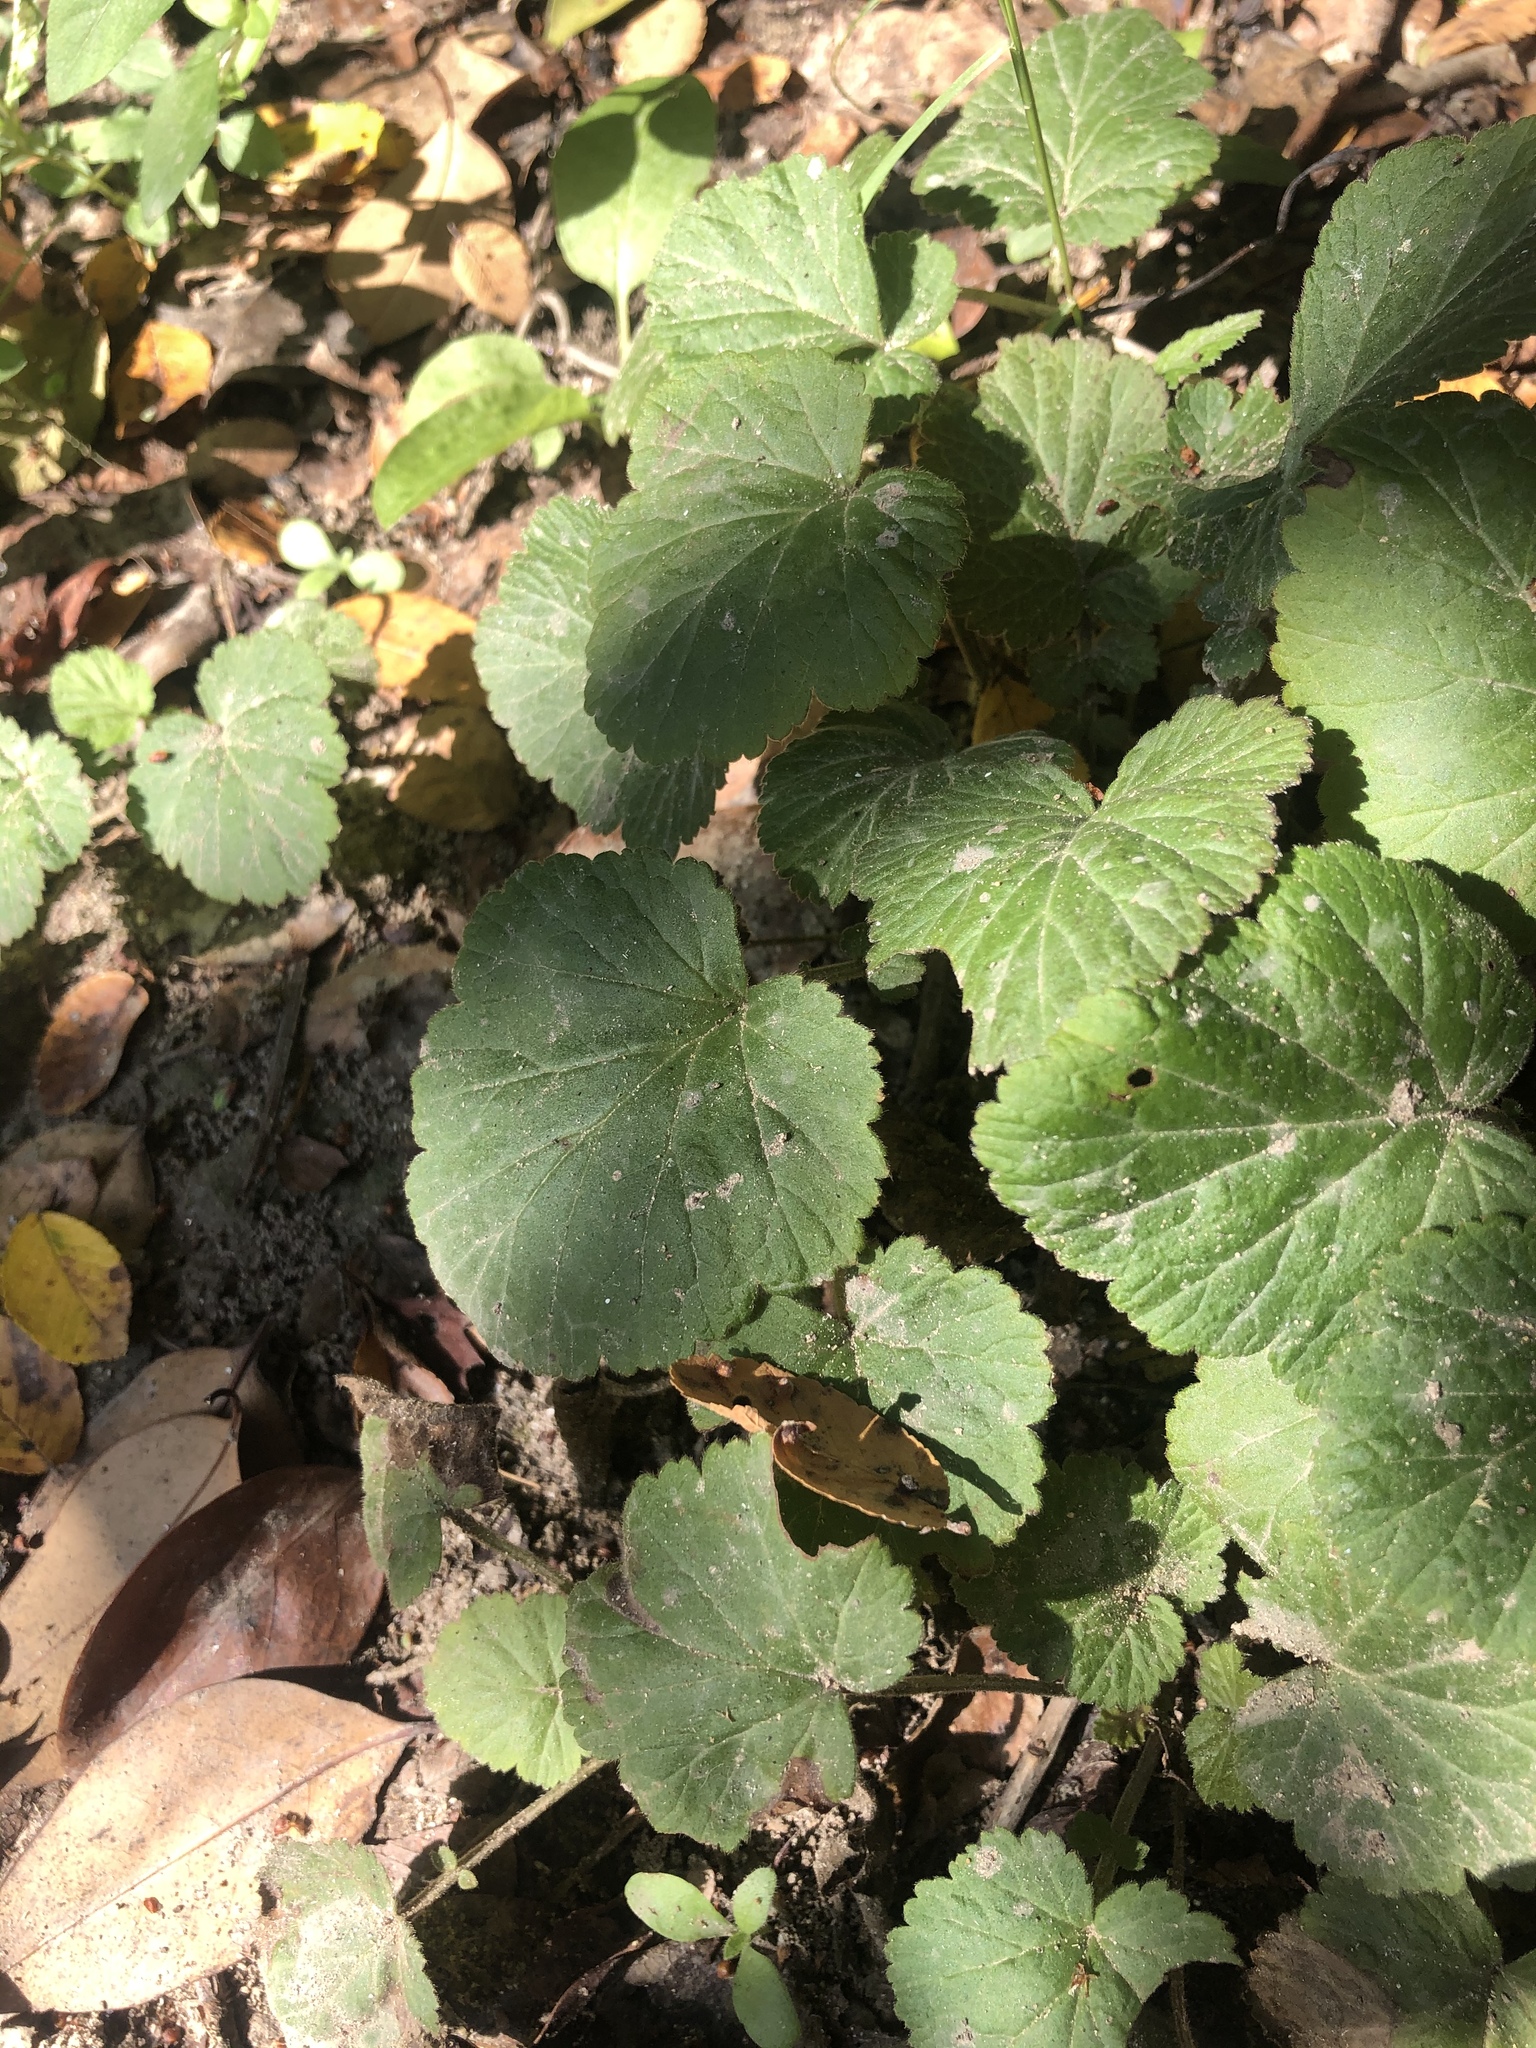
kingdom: Plantae
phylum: Tracheophyta
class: Magnoliopsida
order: Rosales
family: Rosaceae
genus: Geum
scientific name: Geum canadense
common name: White avens
